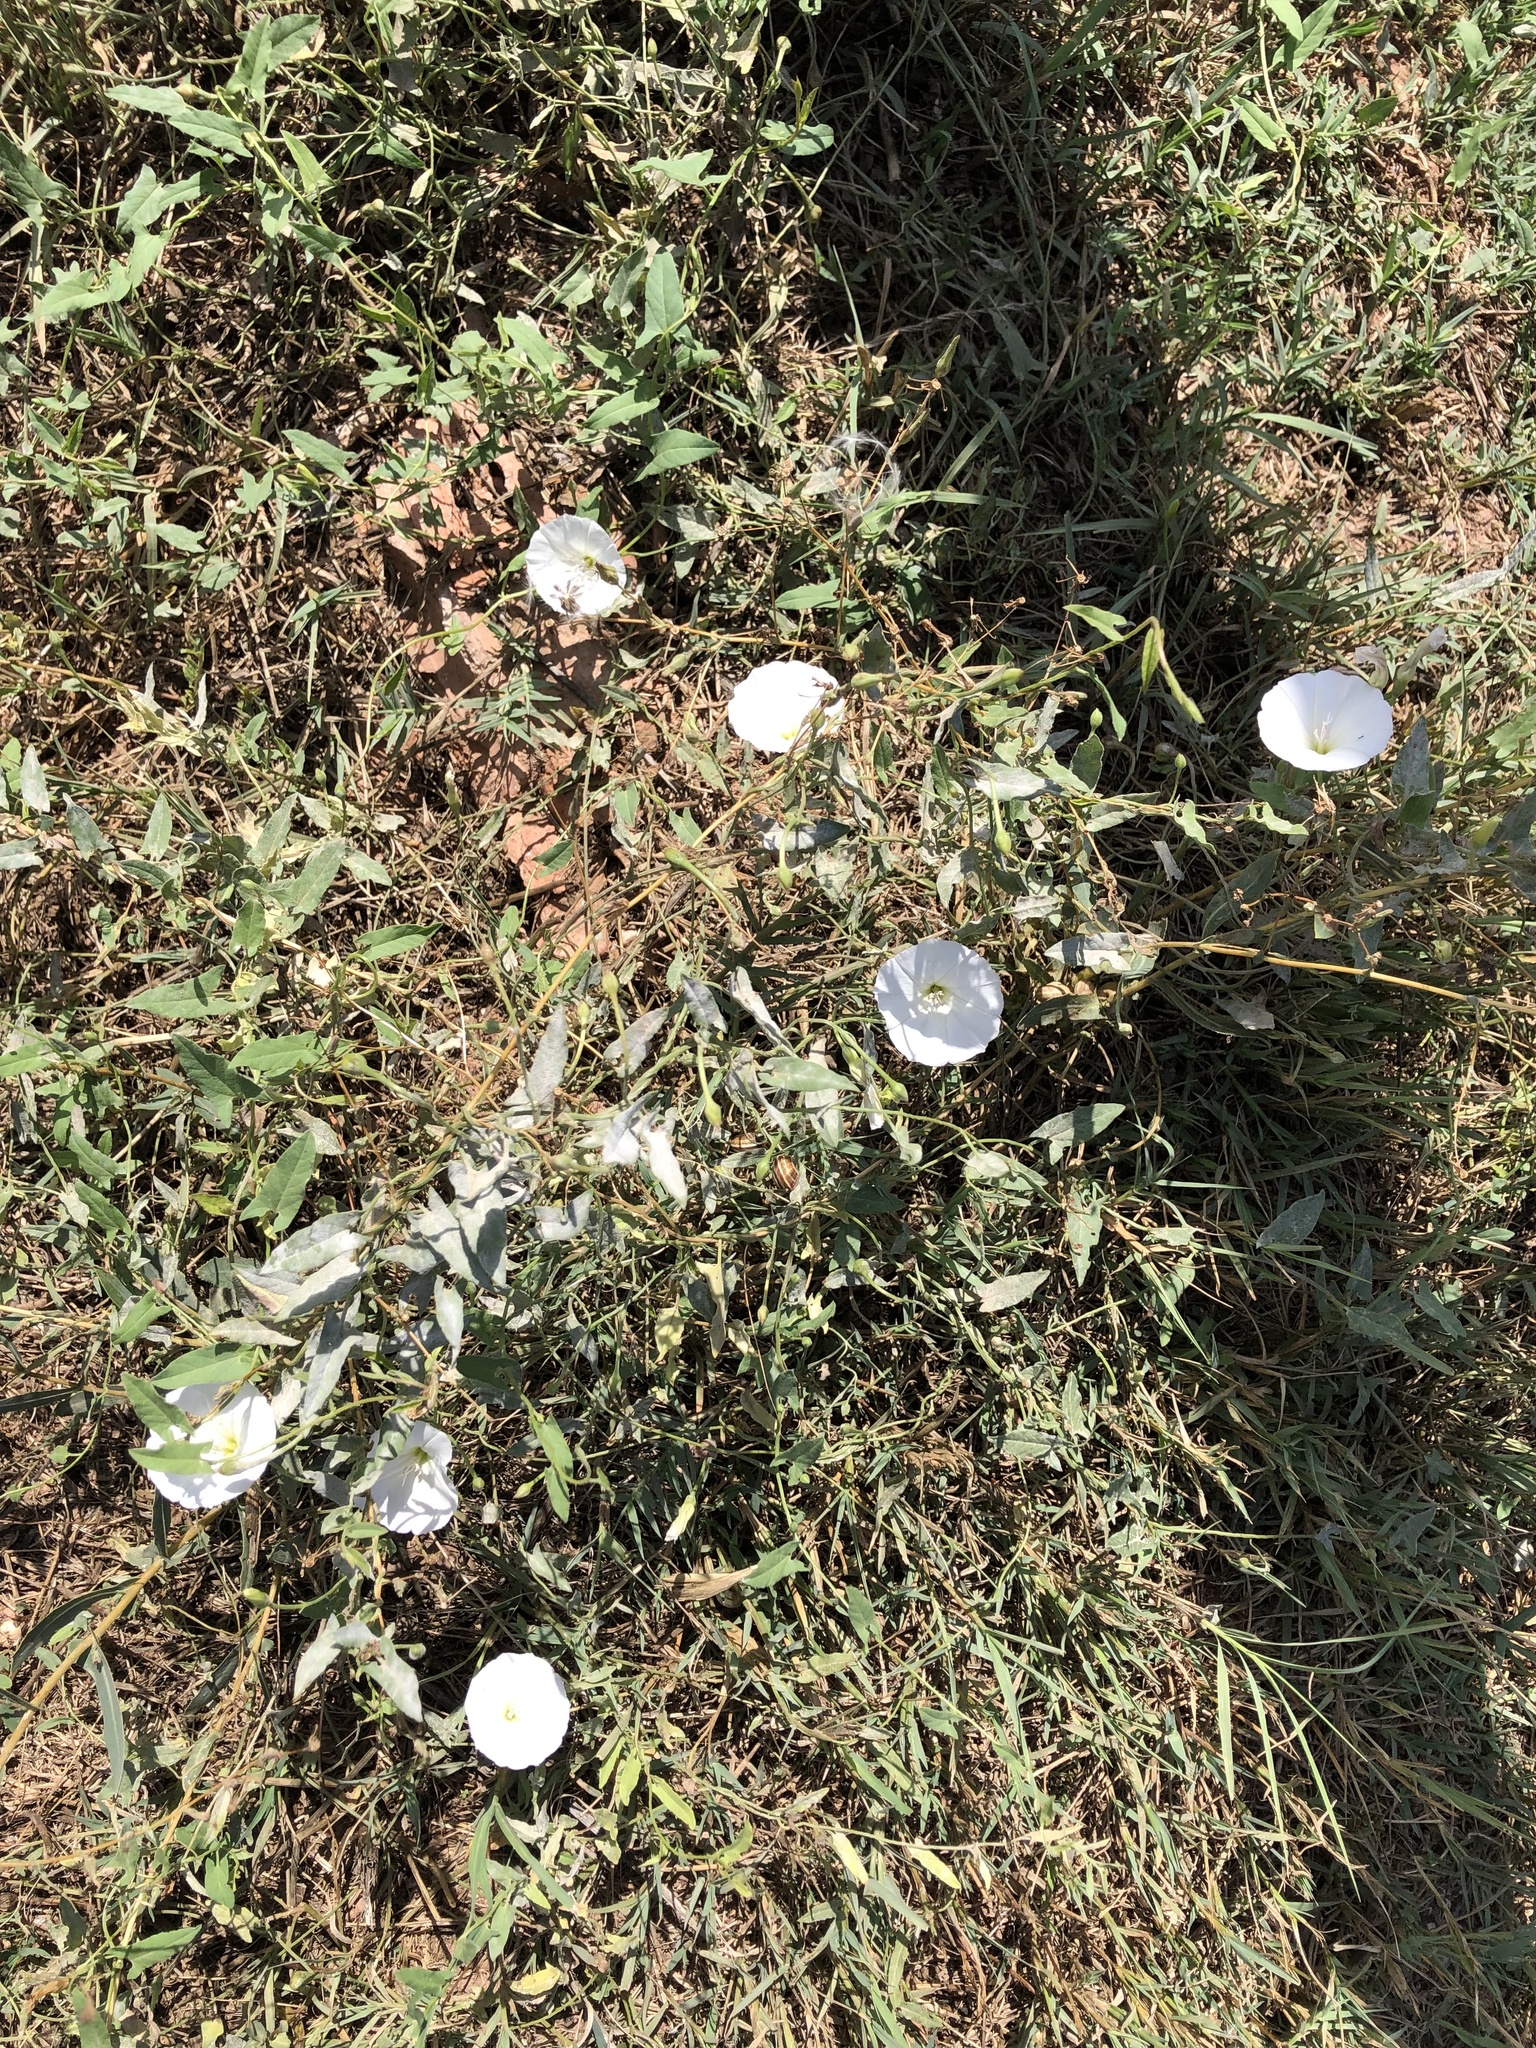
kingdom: Plantae
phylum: Tracheophyta
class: Magnoliopsida
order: Solanales
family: Convolvulaceae
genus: Convolvulus
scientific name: Convolvulus arvensis
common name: Field bindweed
